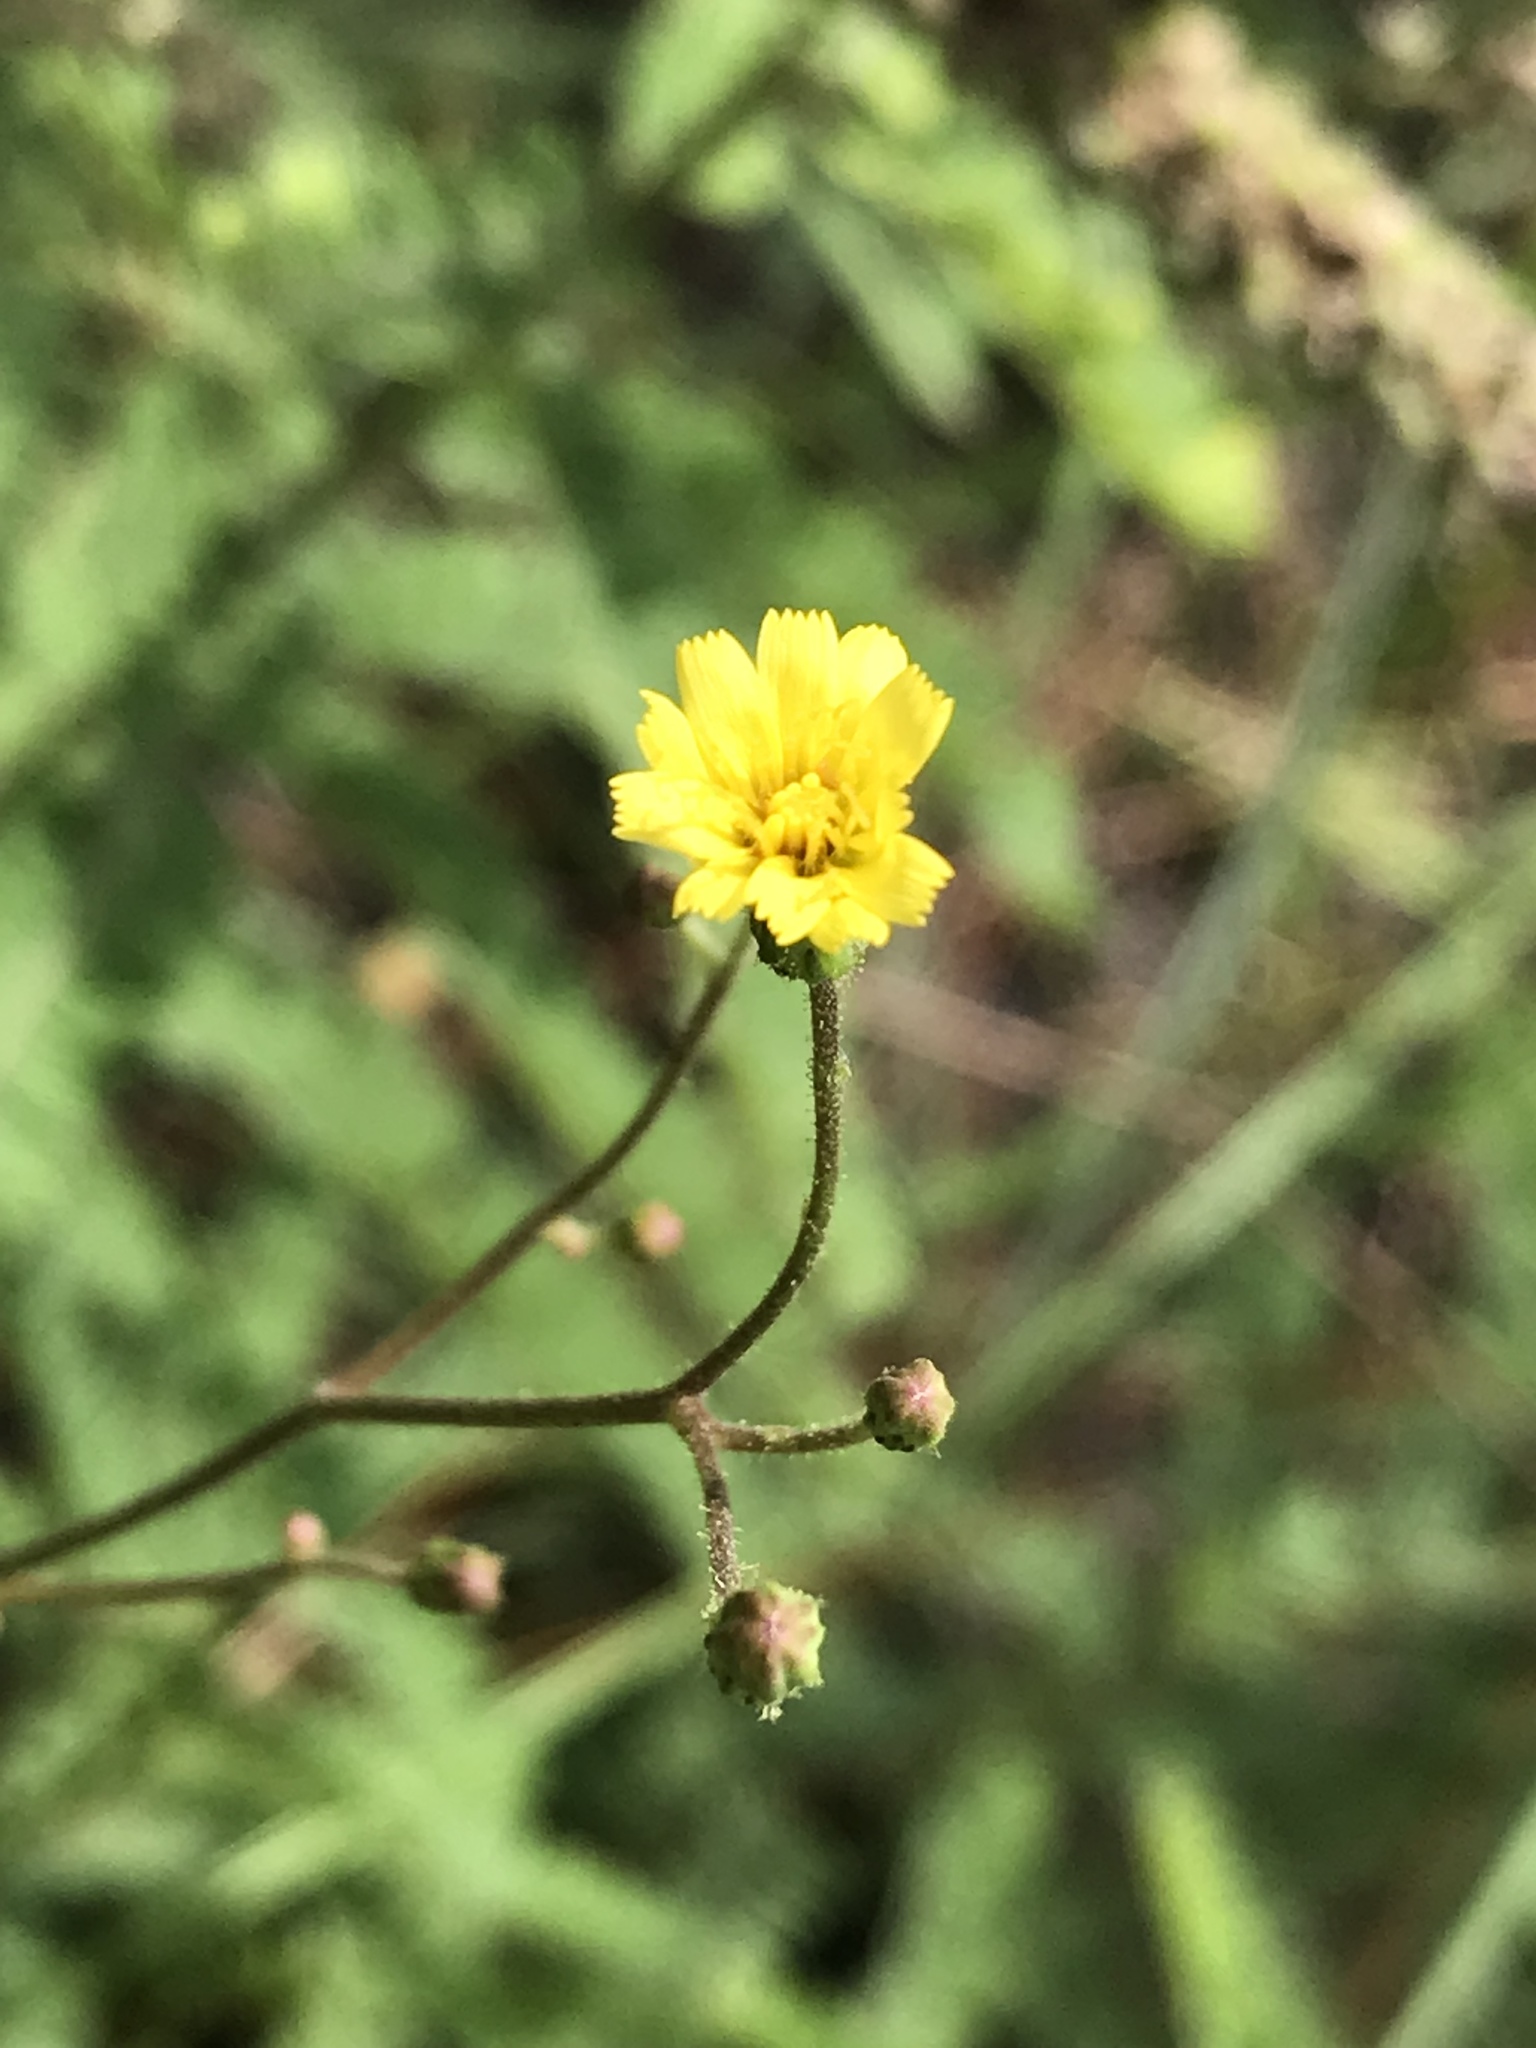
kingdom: Plantae
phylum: Tracheophyta
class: Magnoliopsida
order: Asterales
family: Asteraceae
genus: Hieracium
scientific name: Hieracium gronovii
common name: Beaked hawkweed
